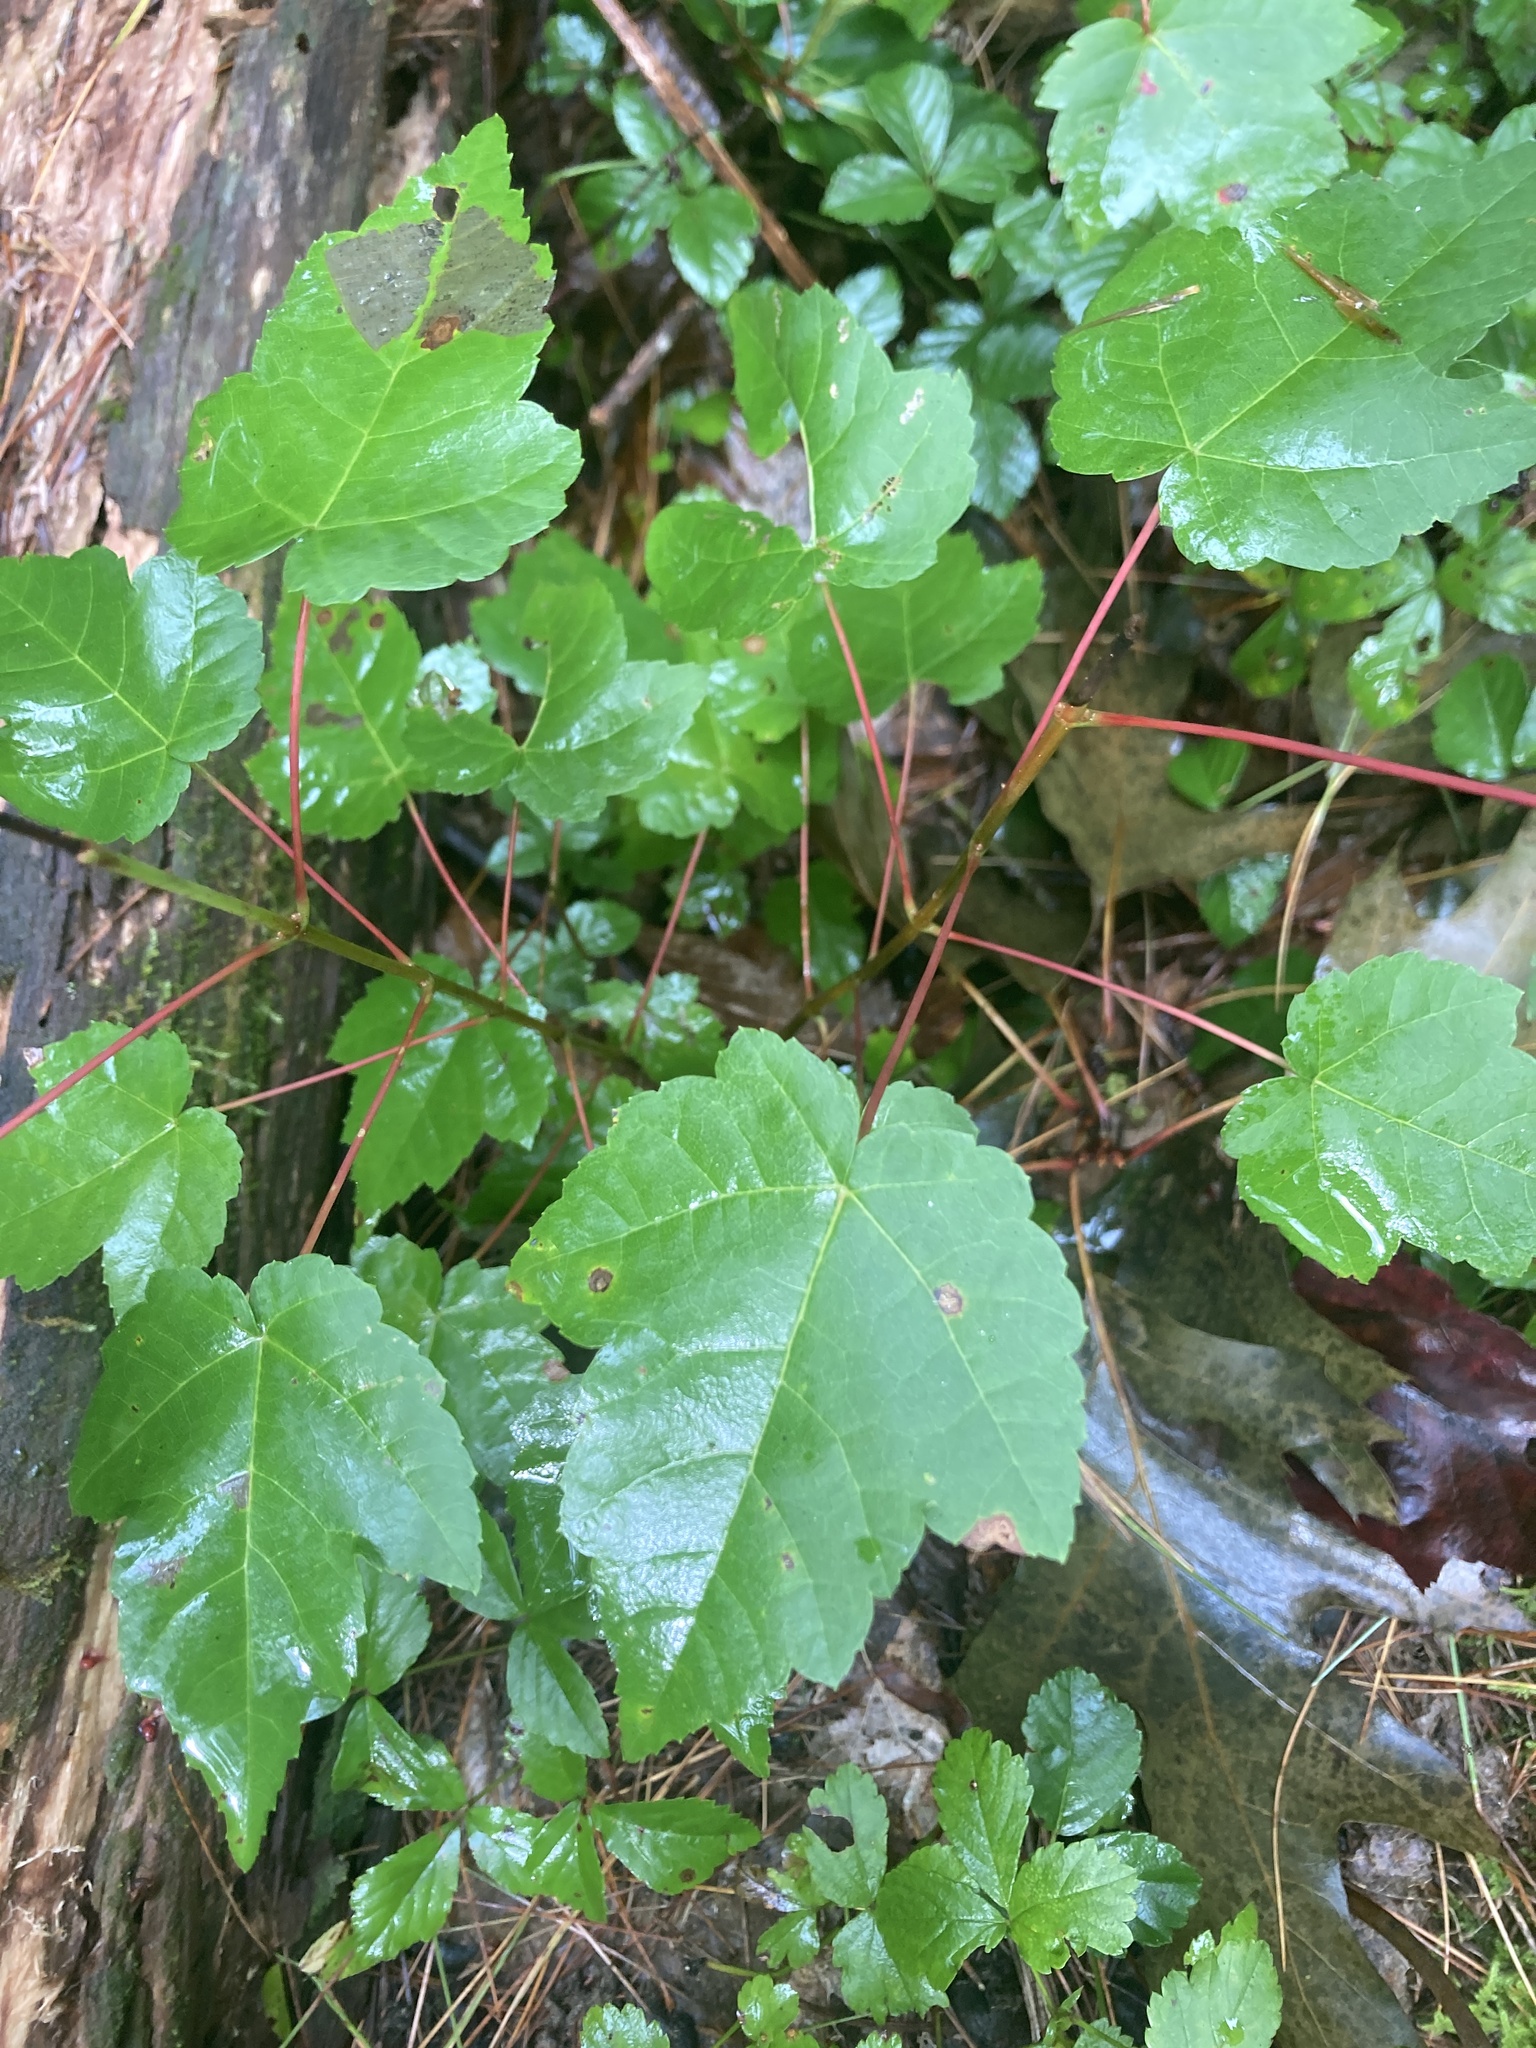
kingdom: Plantae
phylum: Tracheophyta
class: Magnoliopsida
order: Sapindales
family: Sapindaceae
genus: Acer
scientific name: Acer rubrum
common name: Red maple
